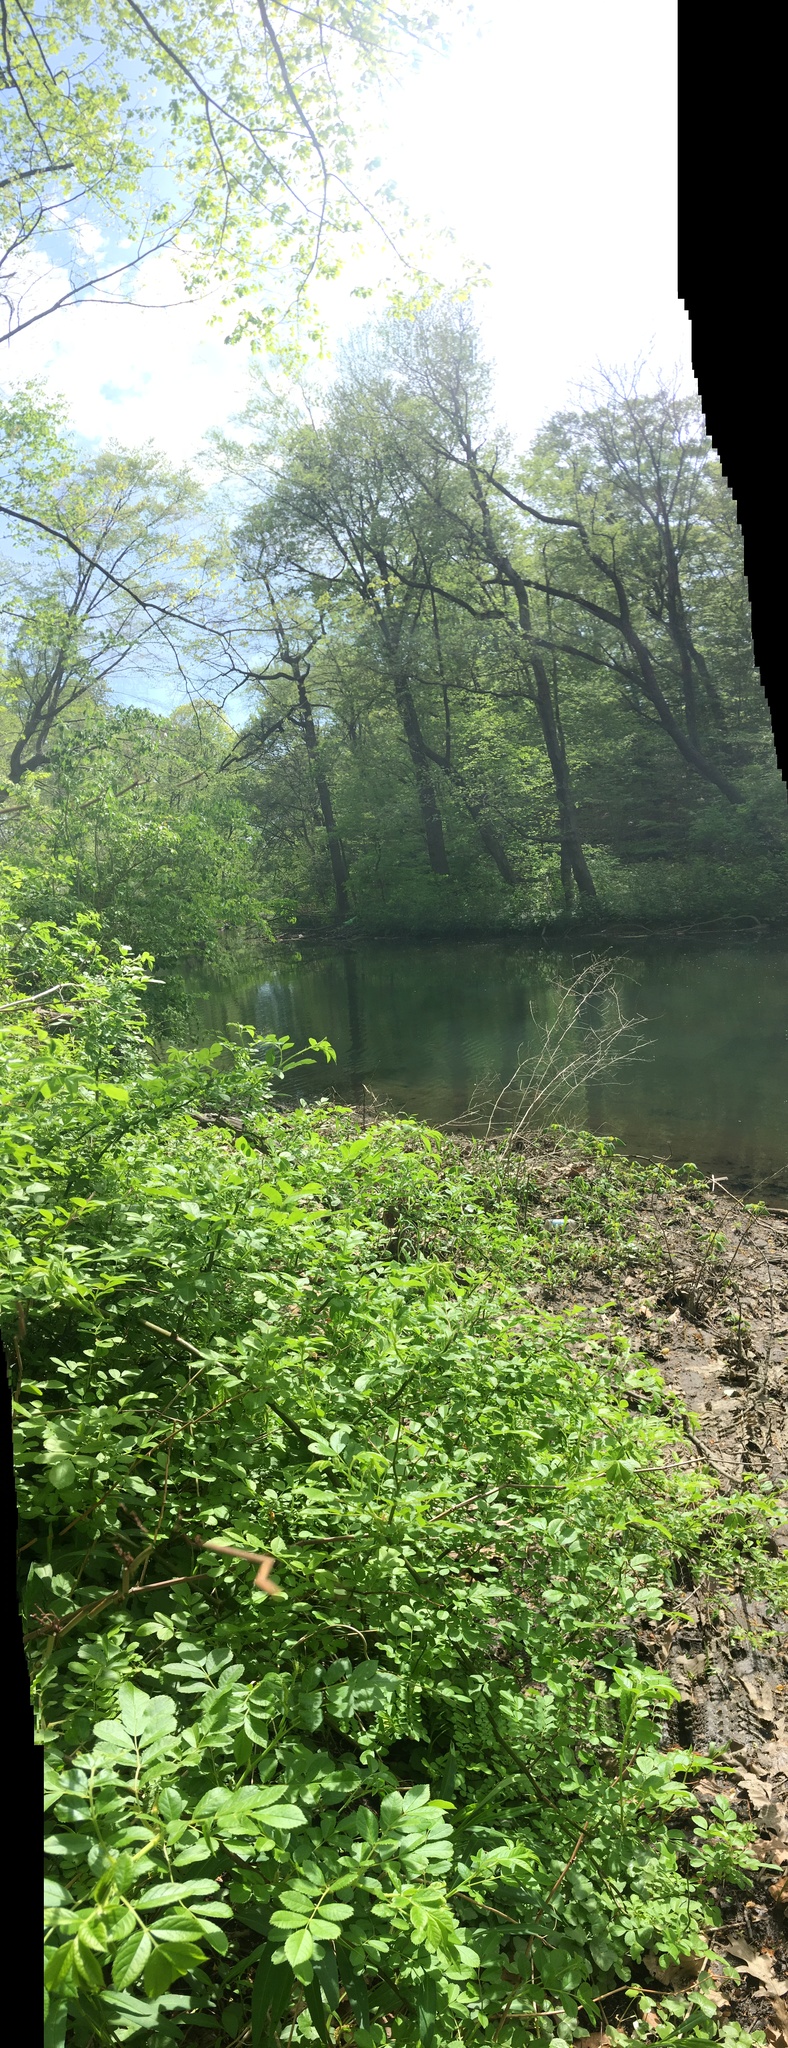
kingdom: Plantae
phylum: Tracheophyta
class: Magnoliopsida
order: Rosales
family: Rosaceae
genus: Rosa
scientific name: Rosa multiflora
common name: Multiflora rose
